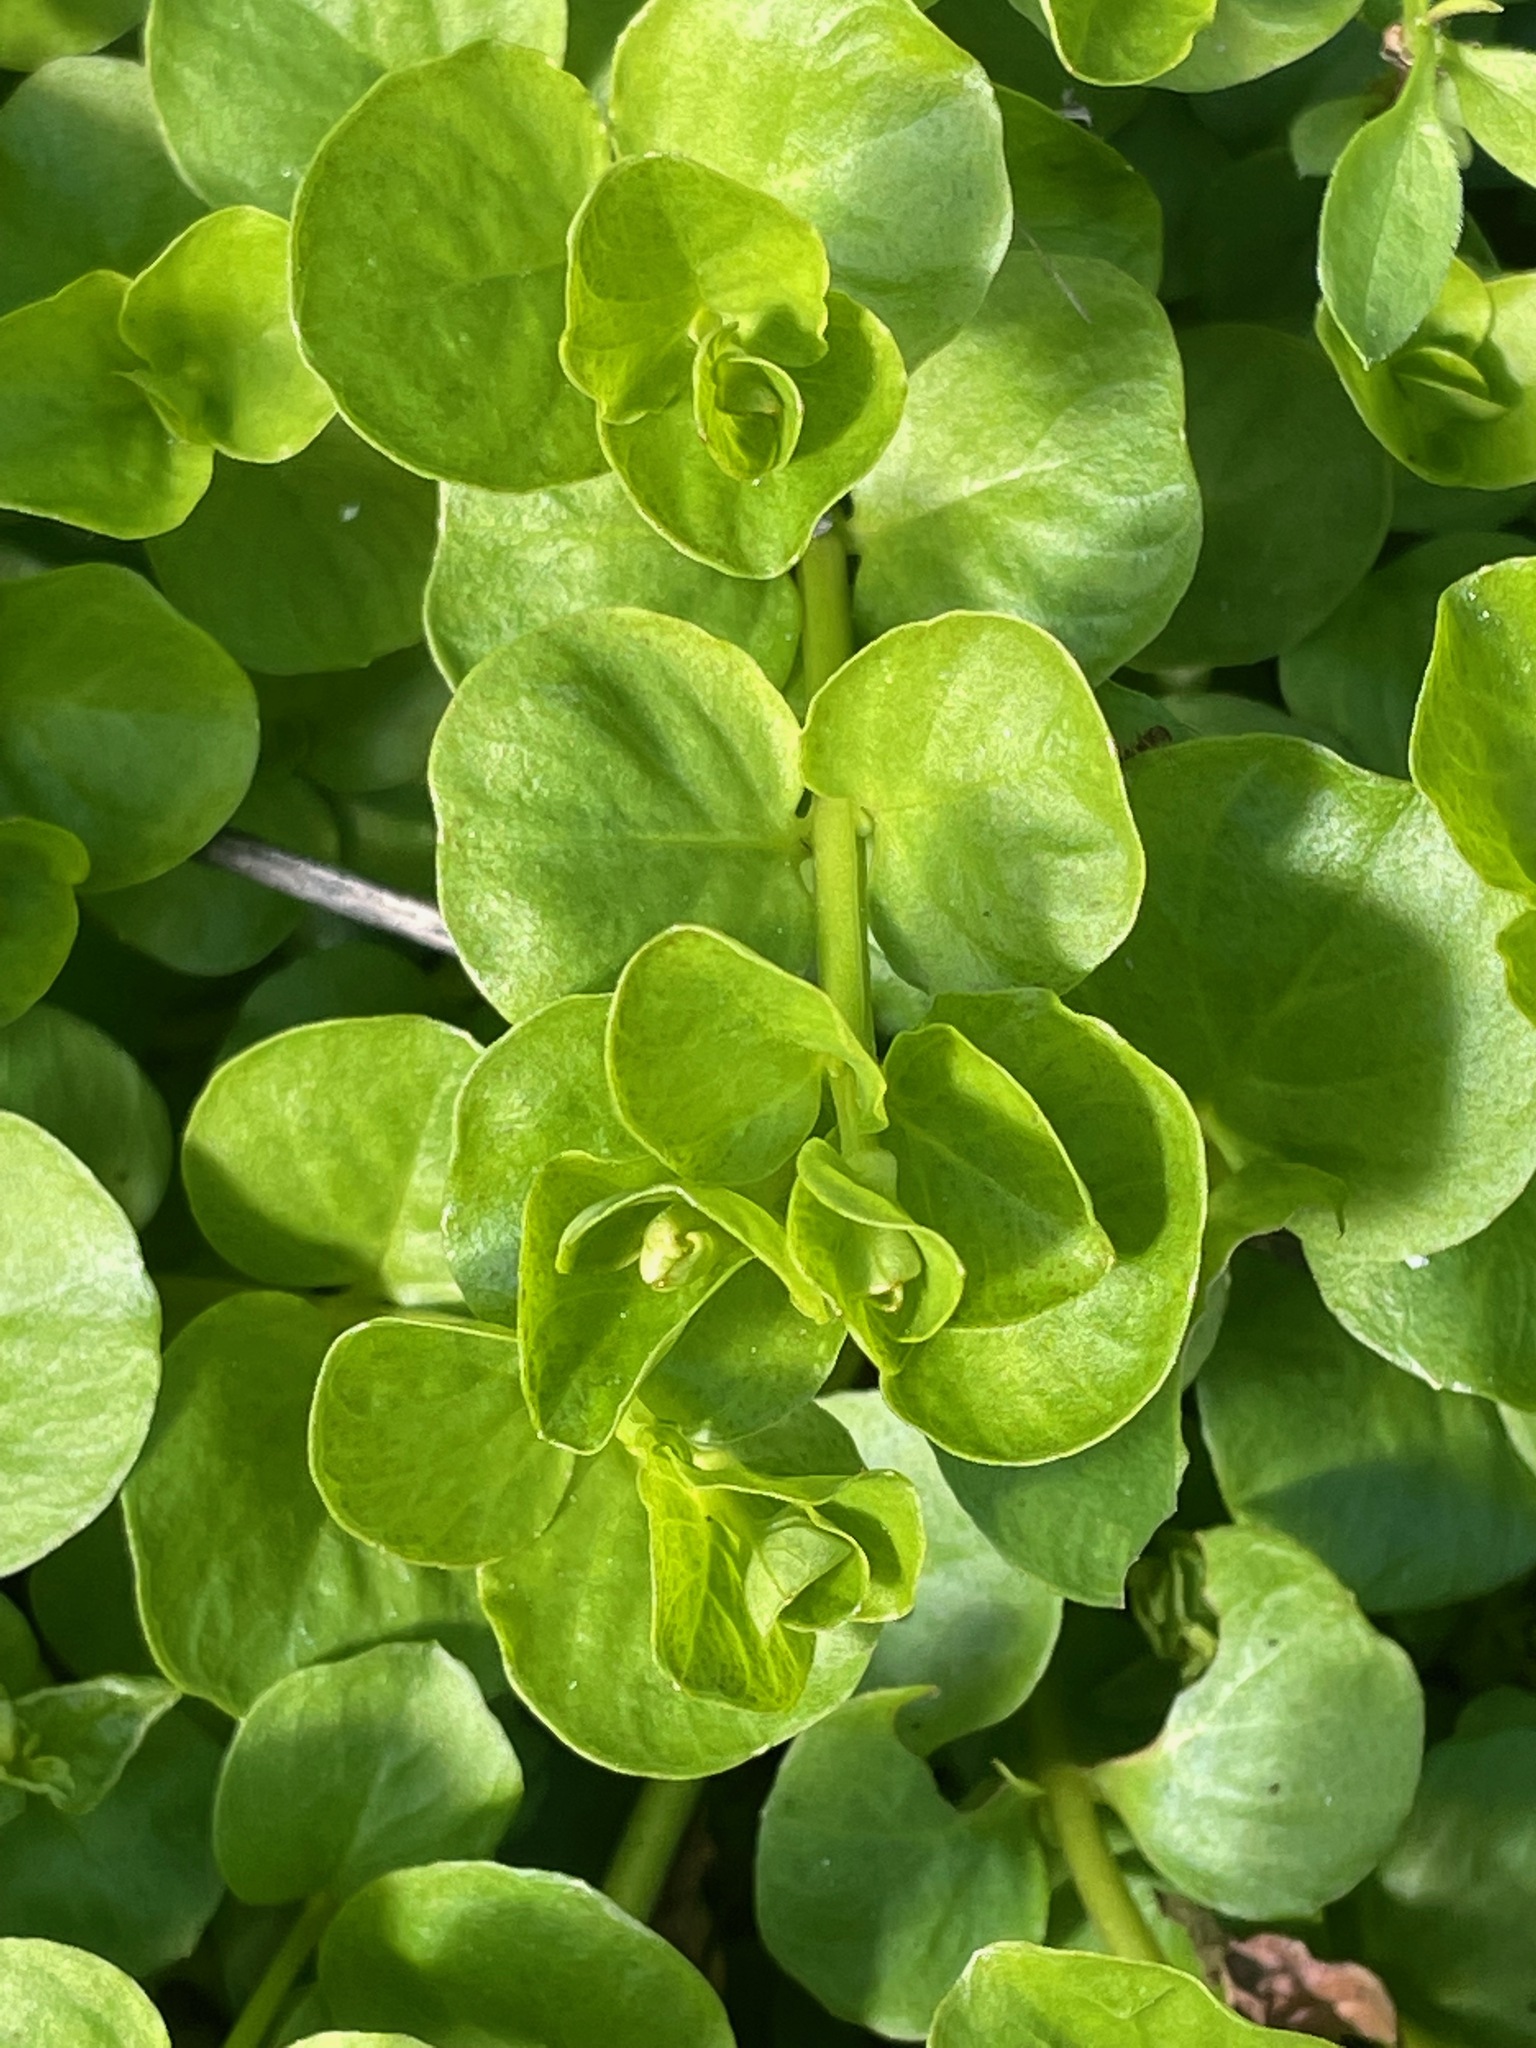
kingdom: Plantae
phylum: Tracheophyta
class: Magnoliopsida
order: Ericales
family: Primulaceae
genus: Lysimachia
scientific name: Lysimachia nummularia
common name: Moneywort
